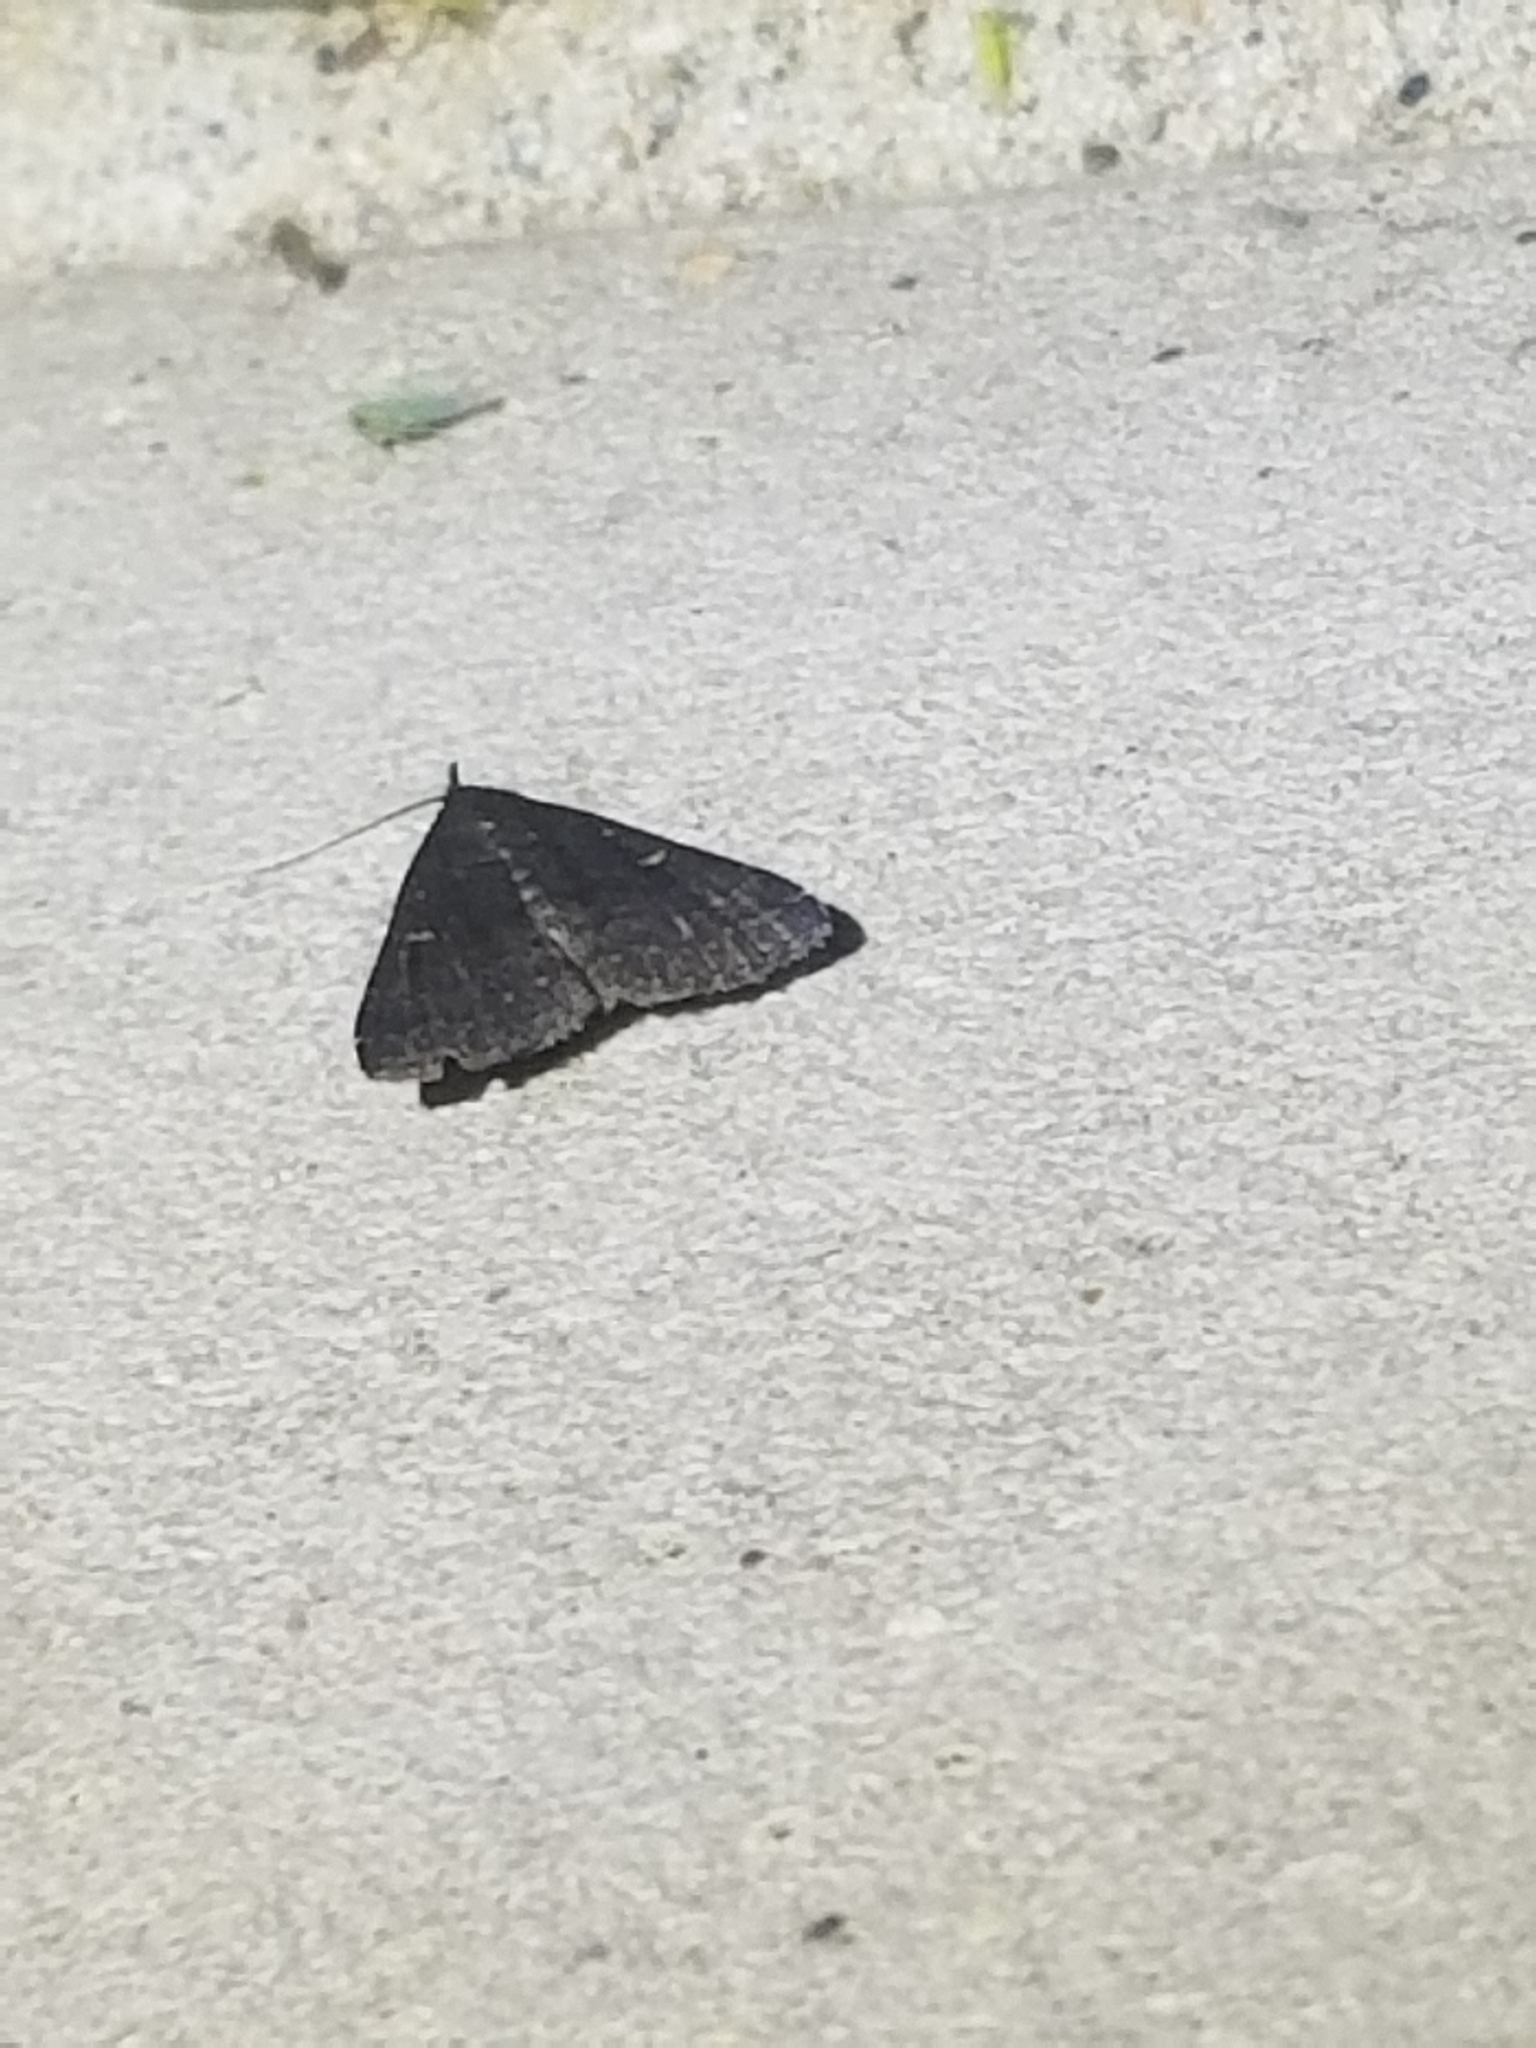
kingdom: Animalia
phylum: Arthropoda
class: Insecta
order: Lepidoptera
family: Erebidae
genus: Tetanolita
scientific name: Tetanolita mynesalis
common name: Smoky tetanolita moth
